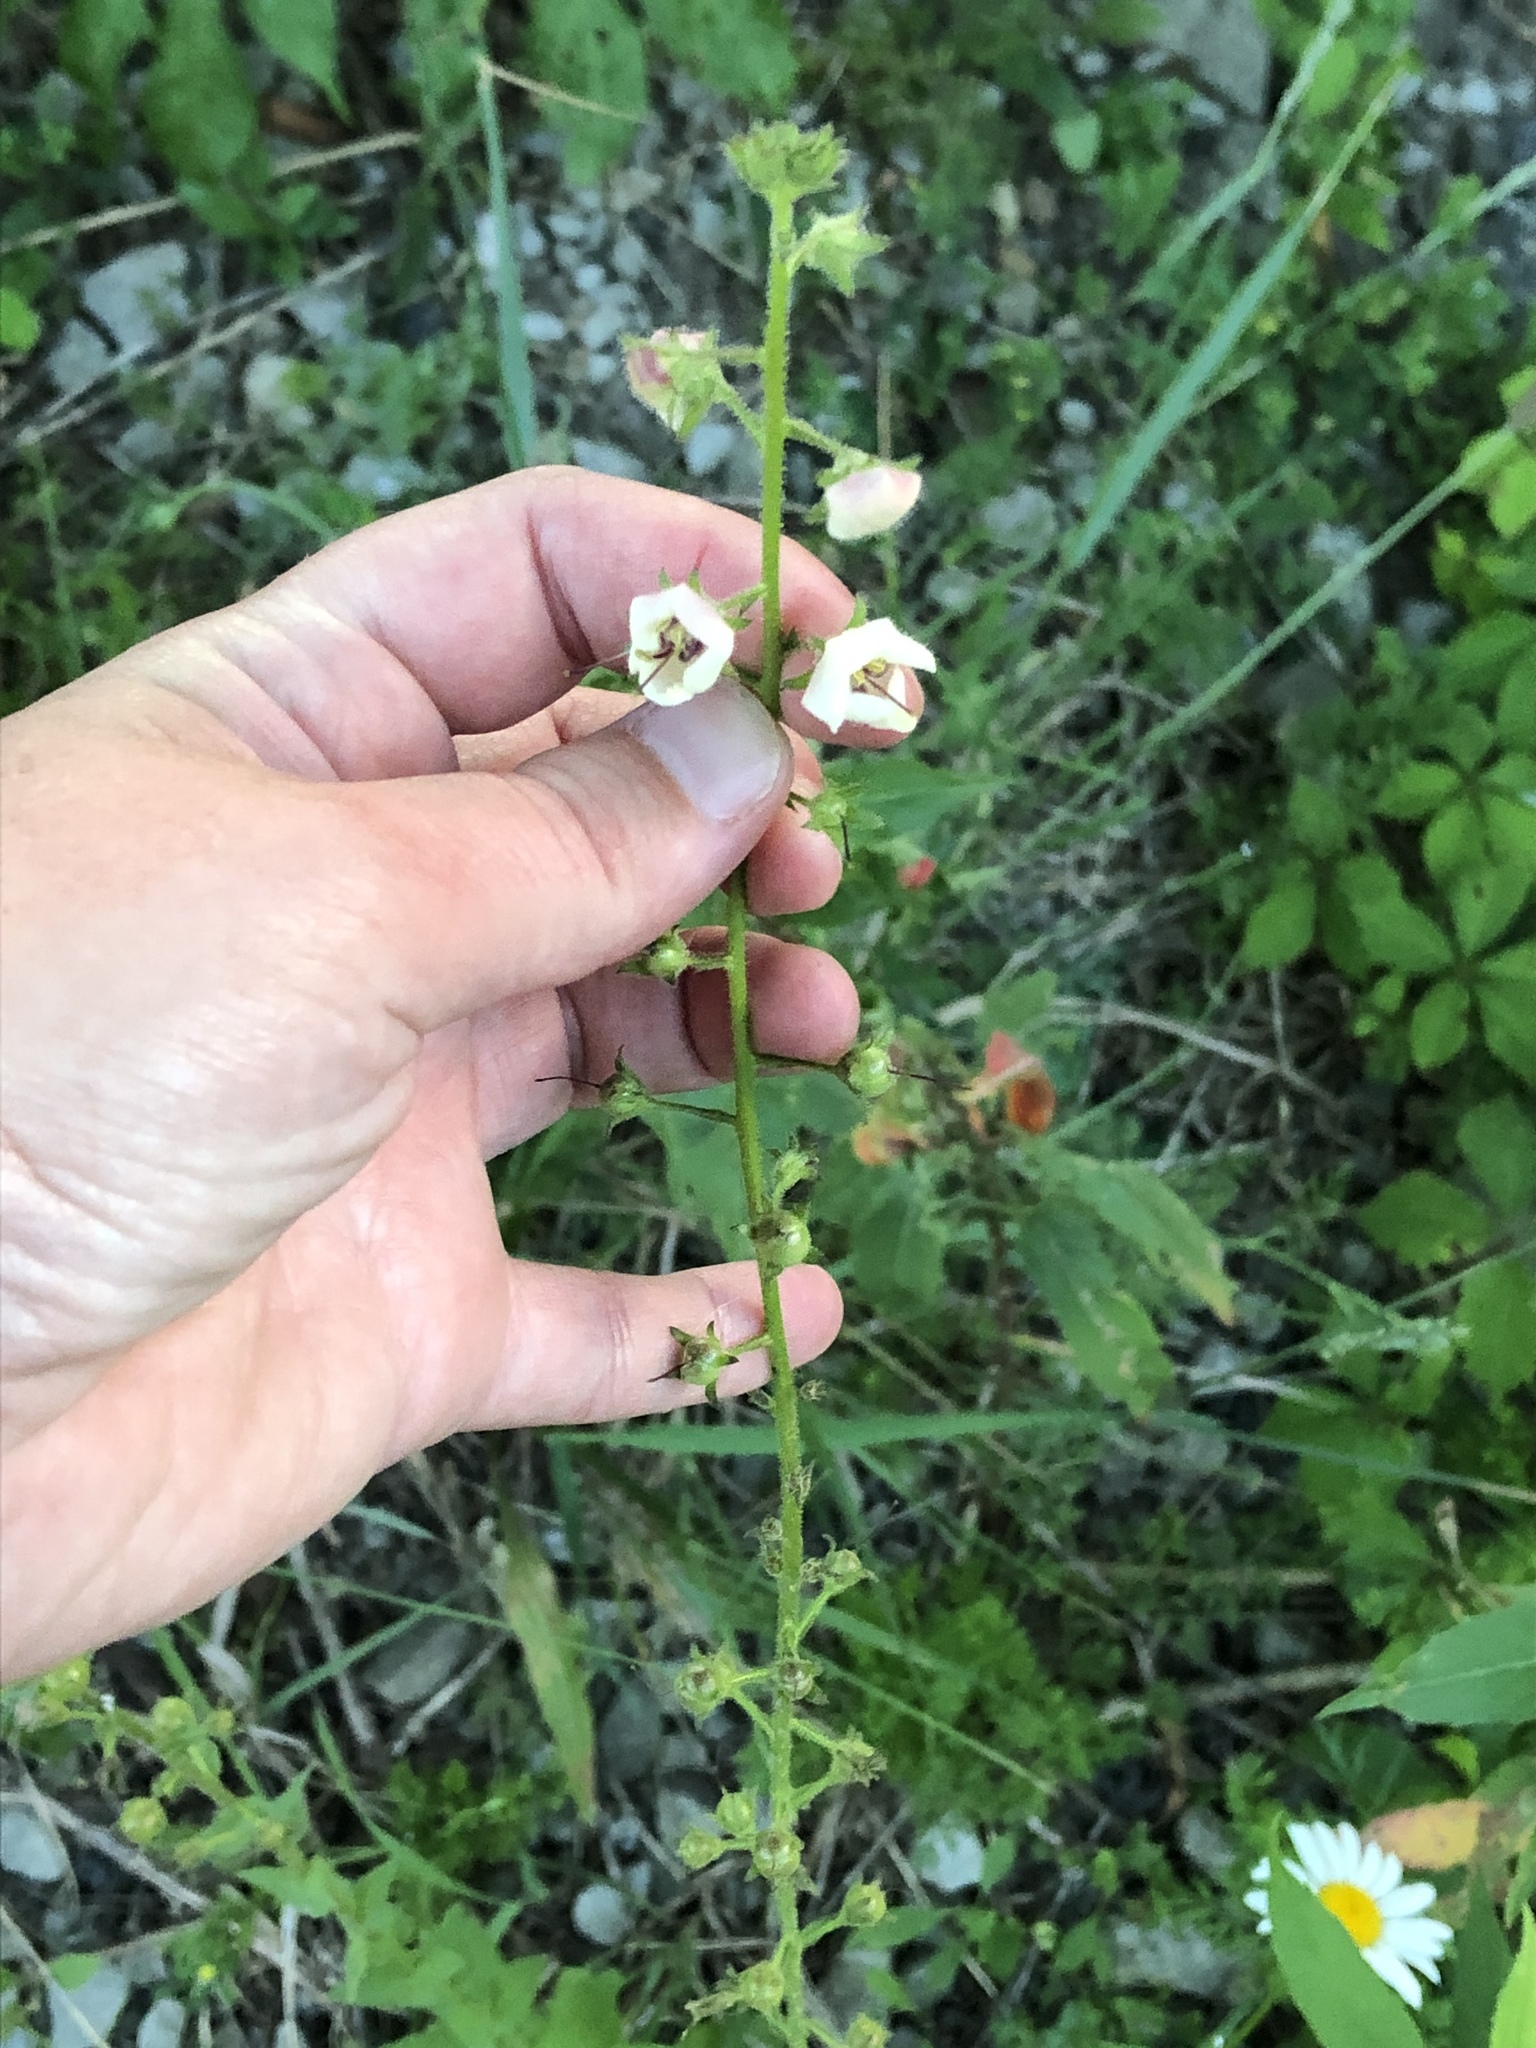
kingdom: Plantae
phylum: Tracheophyta
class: Magnoliopsida
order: Lamiales
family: Scrophulariaceae
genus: Verbascum
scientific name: Verbascum blattaria
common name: Moth mullein
